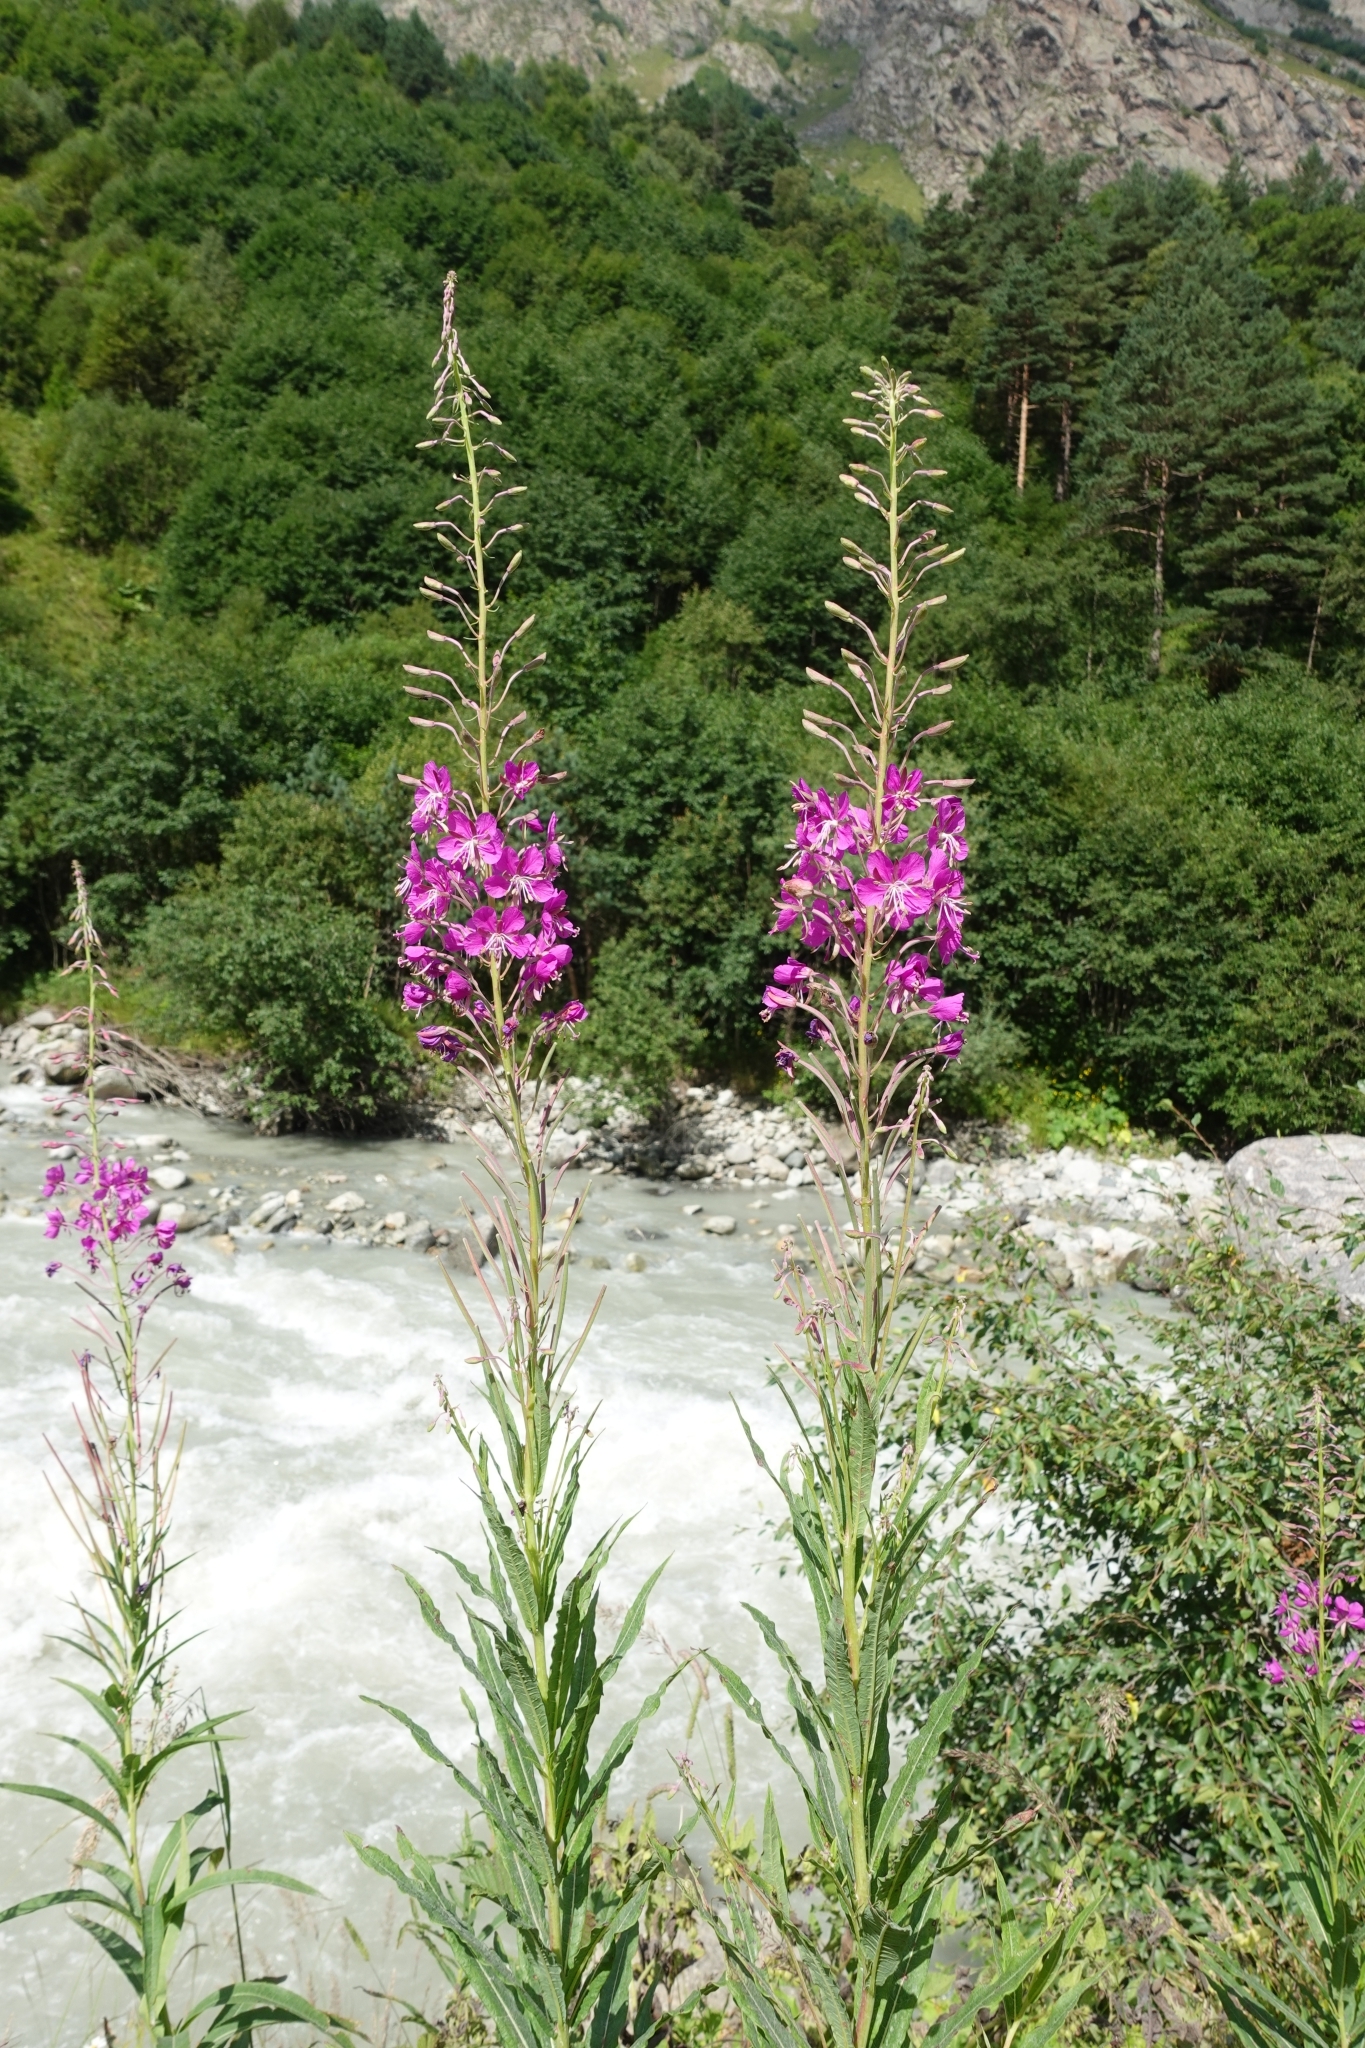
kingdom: Plantae
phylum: Tracheophyta
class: Magnoliopsida
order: Myrtales
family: Onagraceae
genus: Chamaenerion
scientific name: Chamaenerion angustifolium
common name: Fireweed
